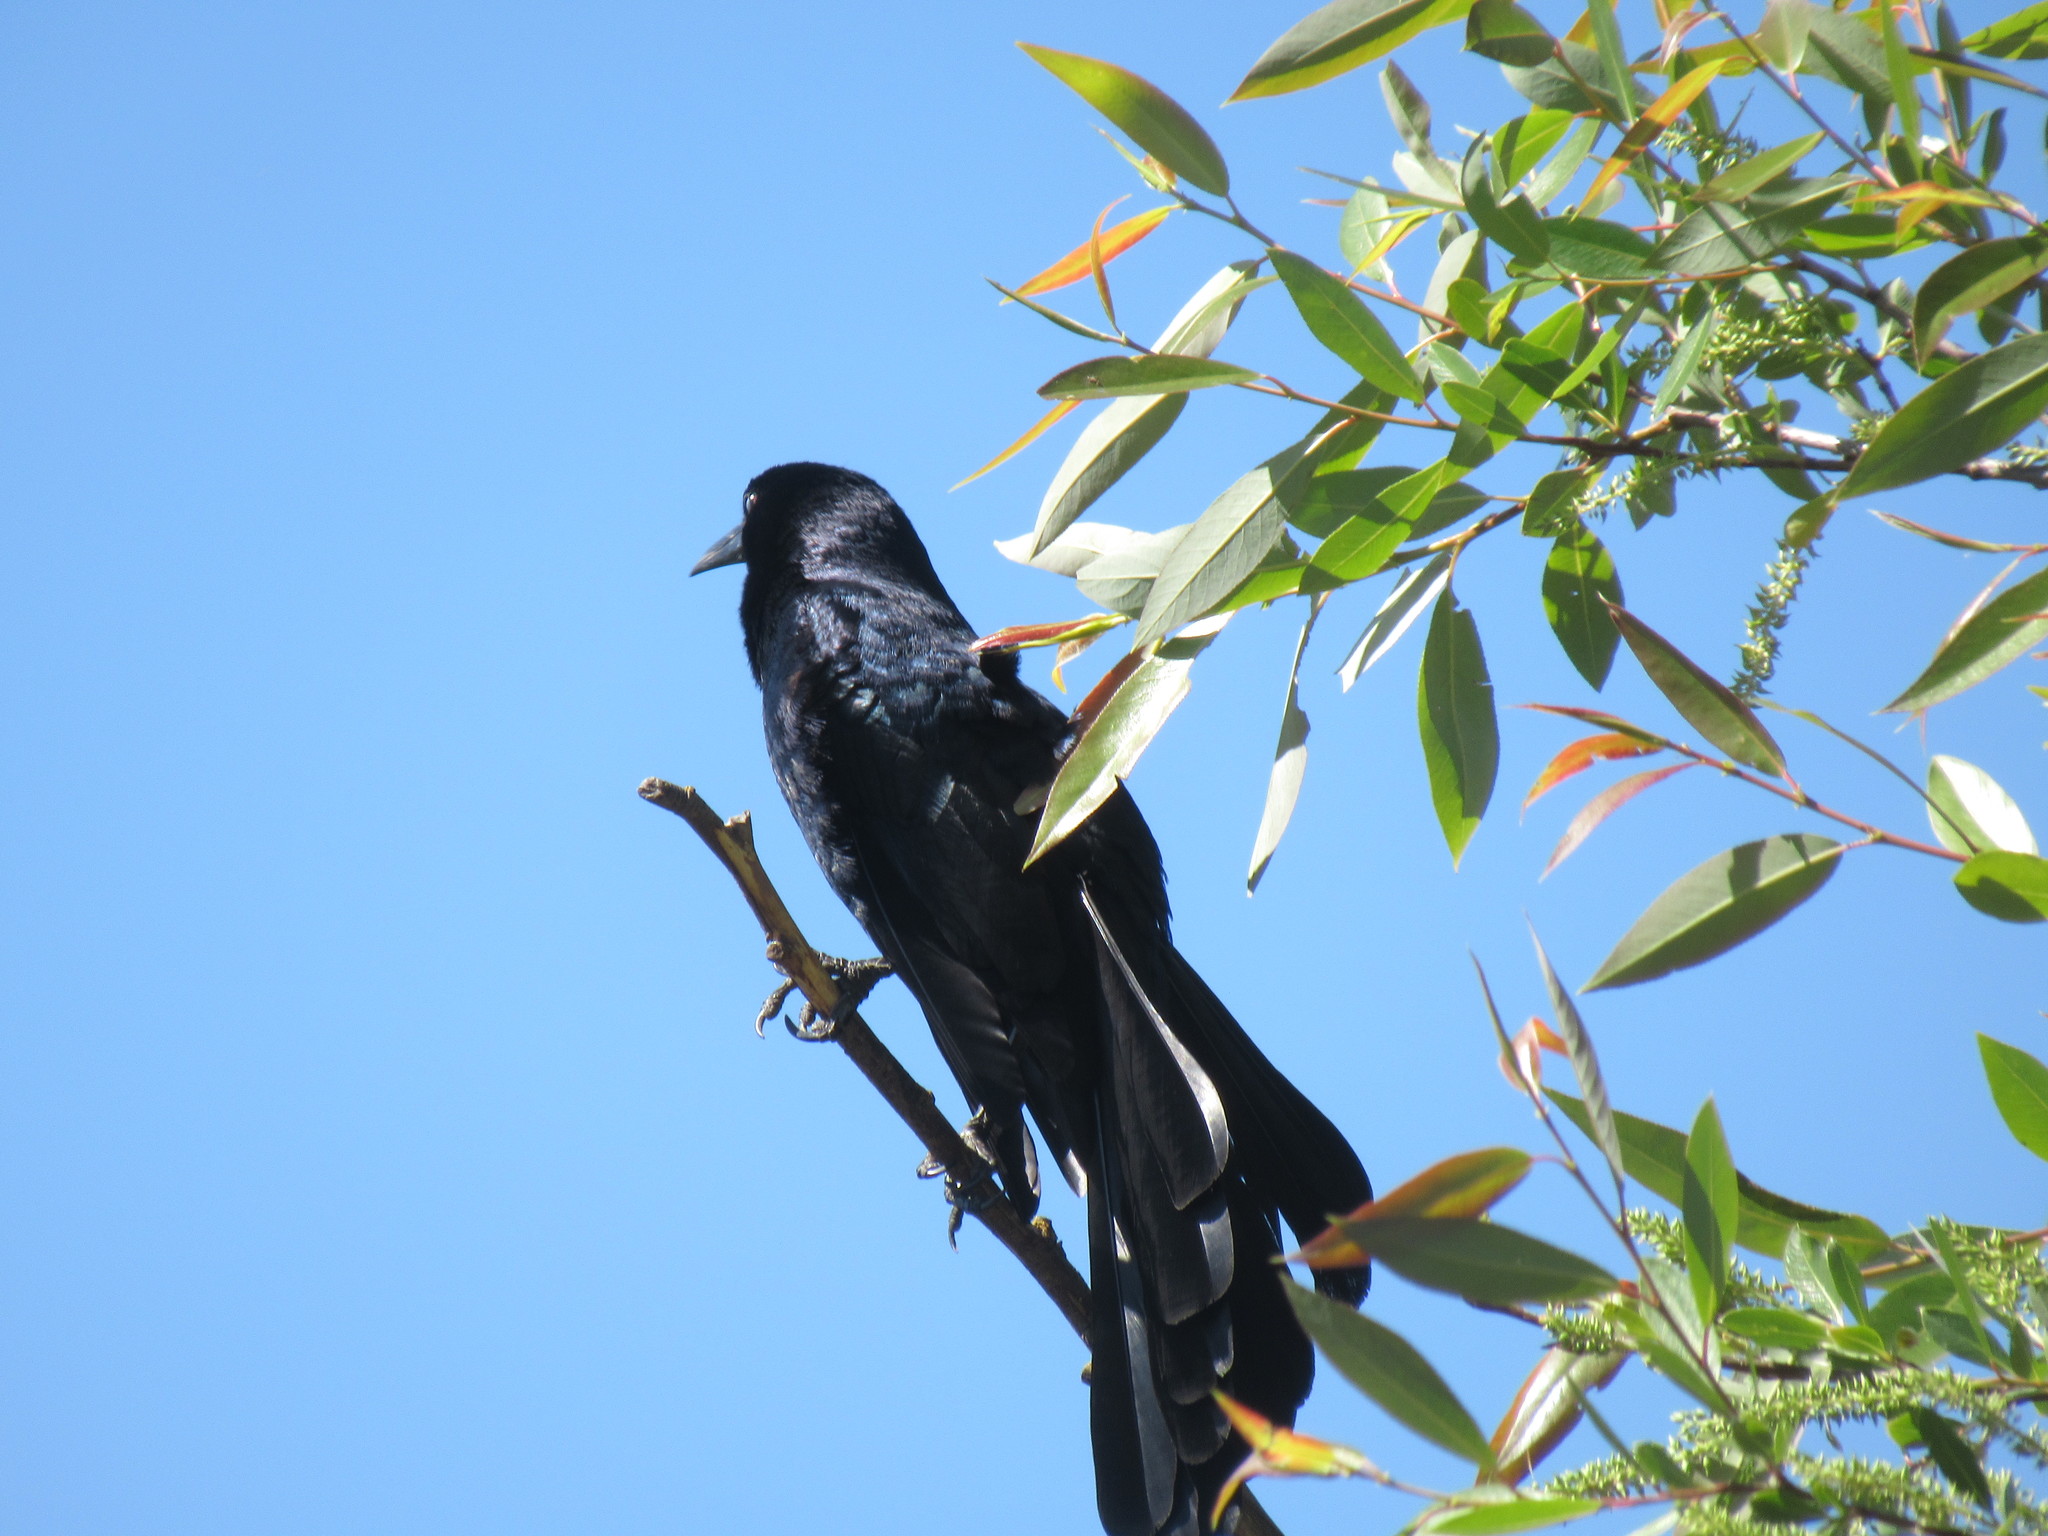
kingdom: Animalia
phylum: Chordata
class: Aves
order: Passeriformes
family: Icteridae
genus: Quiscalus
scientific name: Quiscalus mexicanus
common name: Great-tailed grackle
